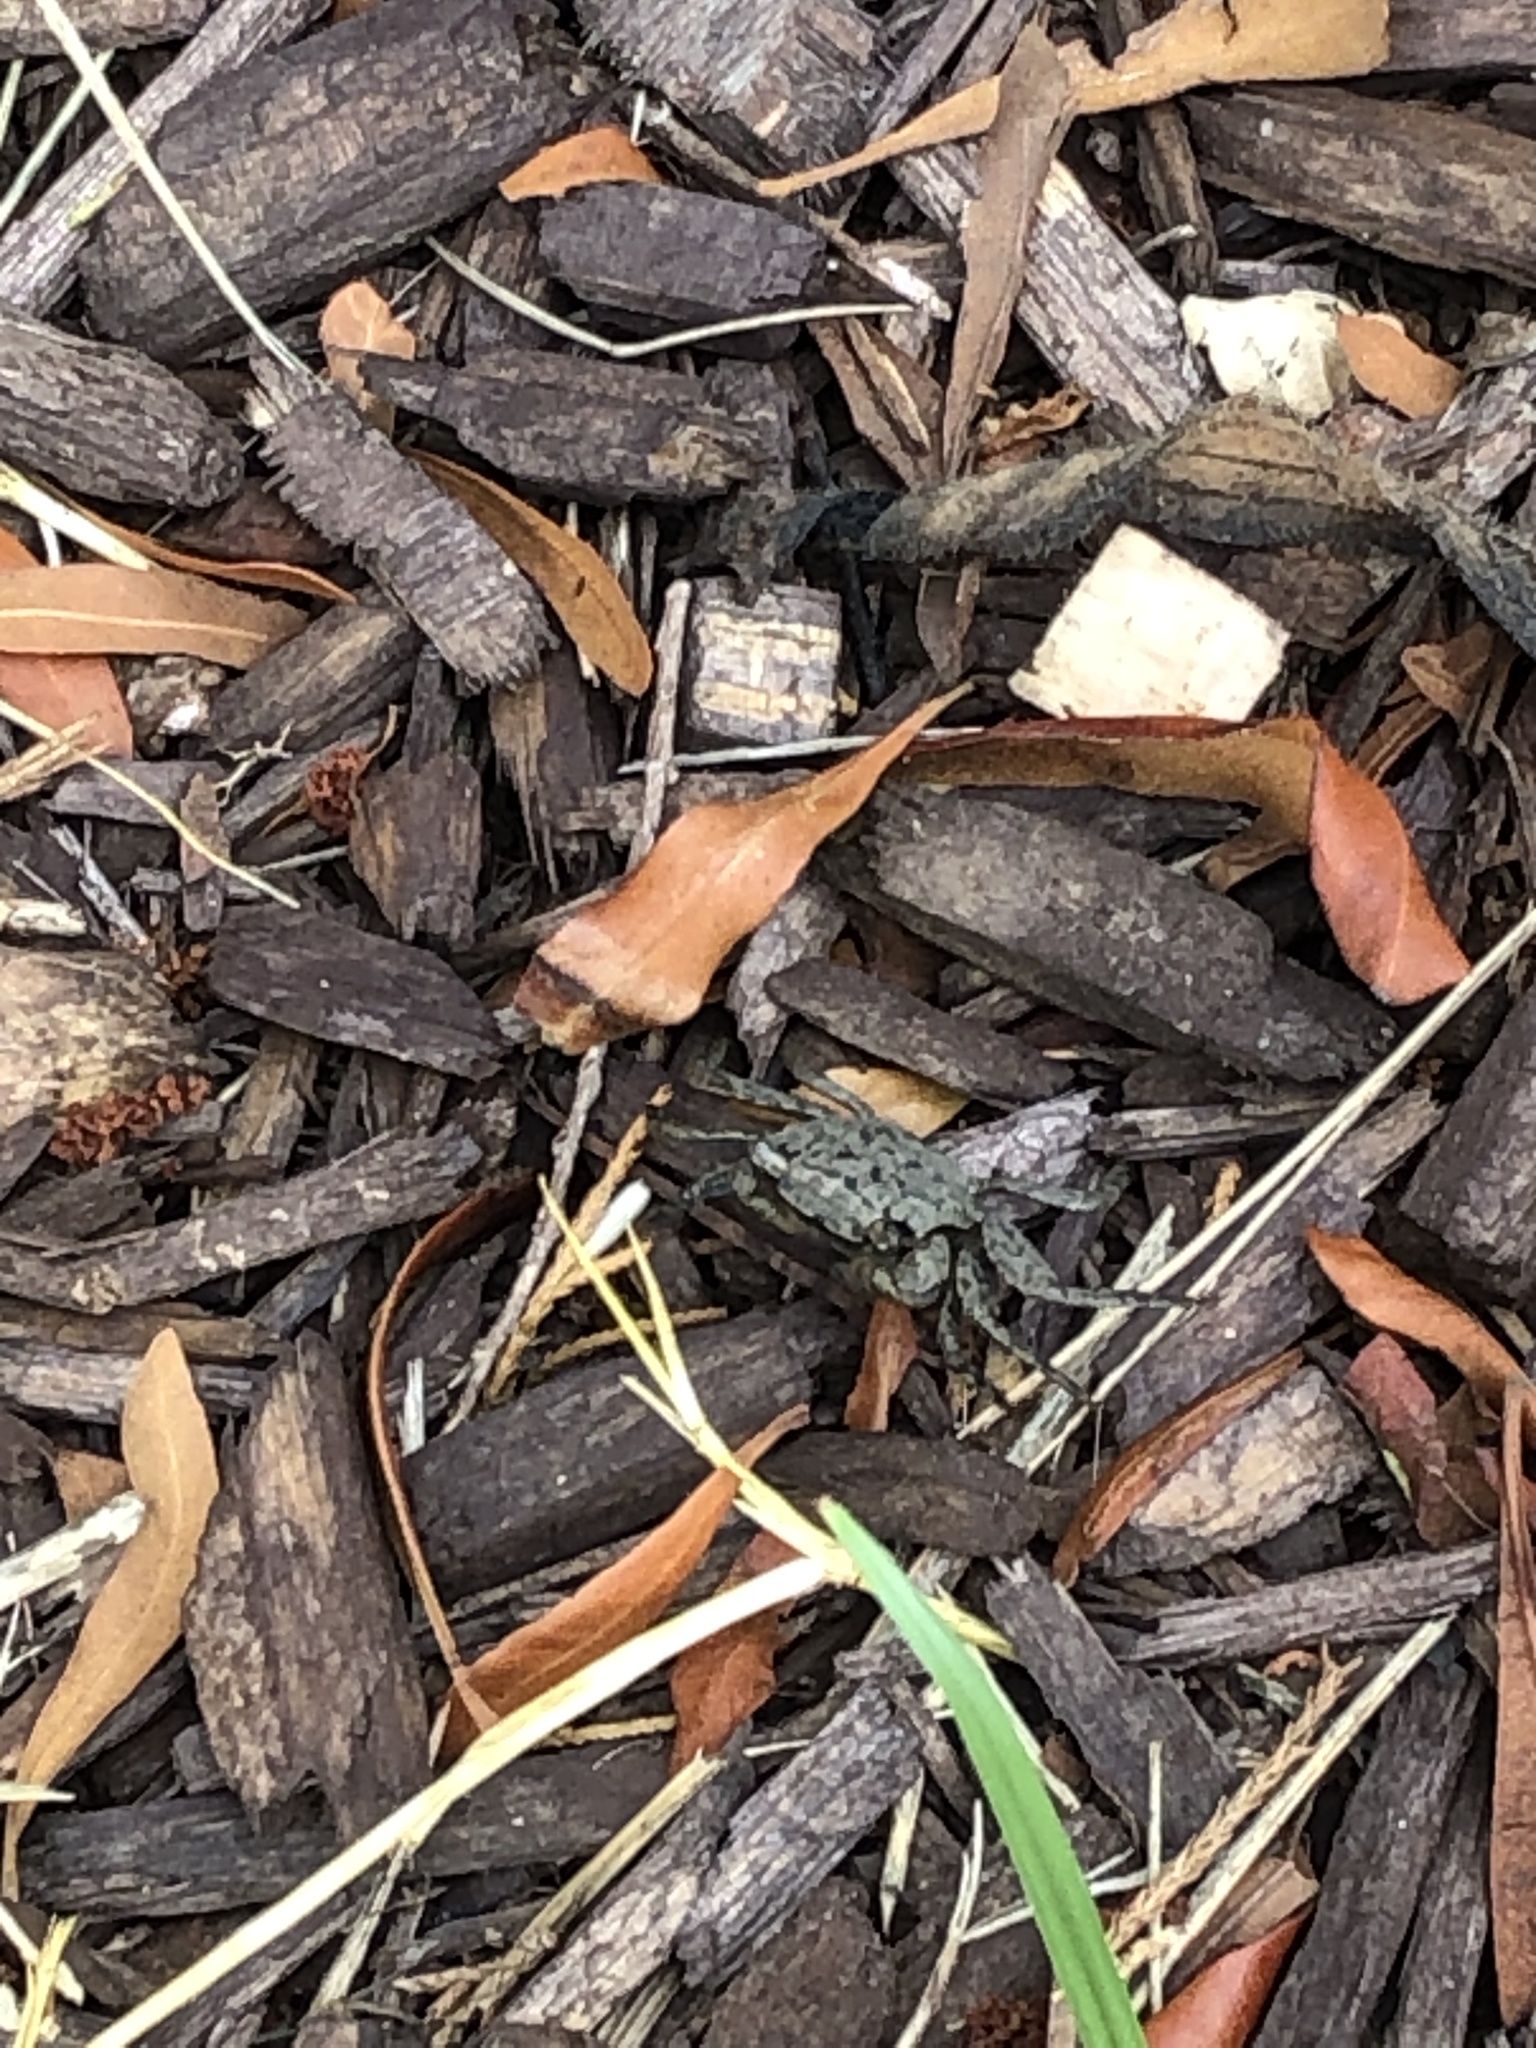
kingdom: Animalia
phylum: Arthropoda
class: Malacostraca
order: Decapoda
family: Sesarmidae
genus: Armases
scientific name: Armases cinereum
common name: Squareback marsh crab
